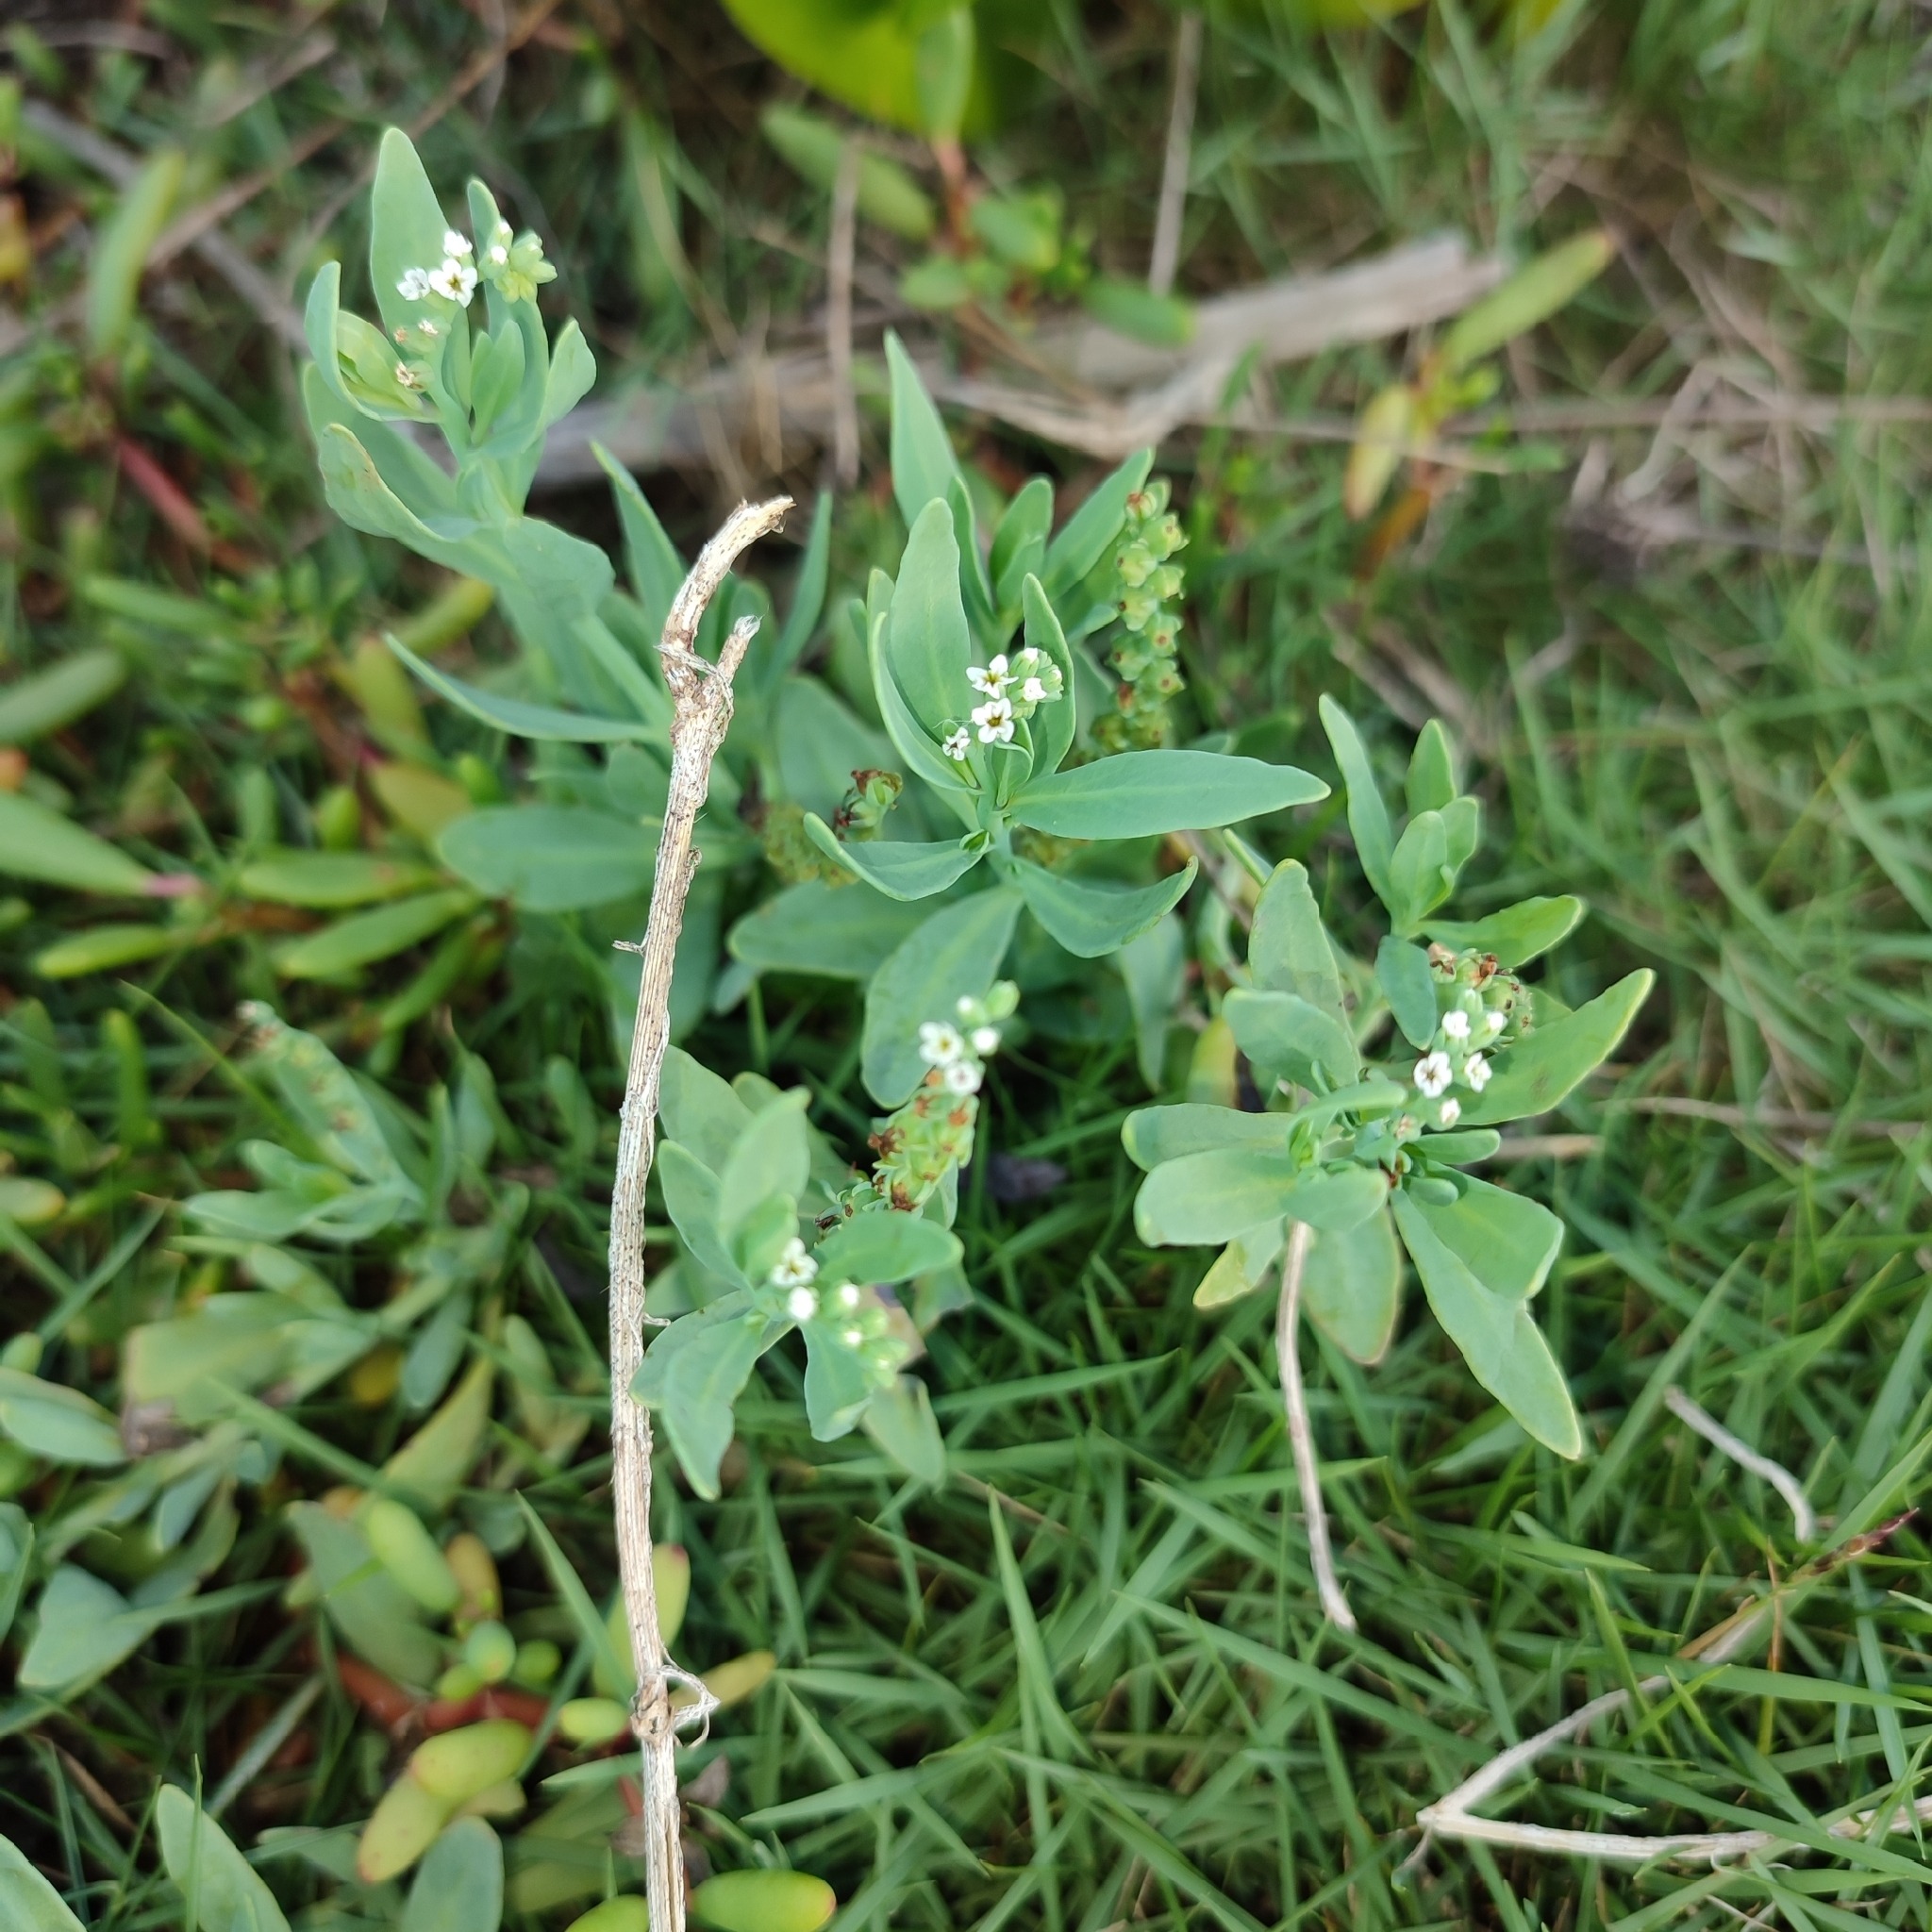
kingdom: Plantae
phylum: Tracheophyta
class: Magnoliopsida
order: Boraginales
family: Heliotropiaceae
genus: Heliotropium
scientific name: Heliotropium curassavicum
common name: Seaside heliotrope
